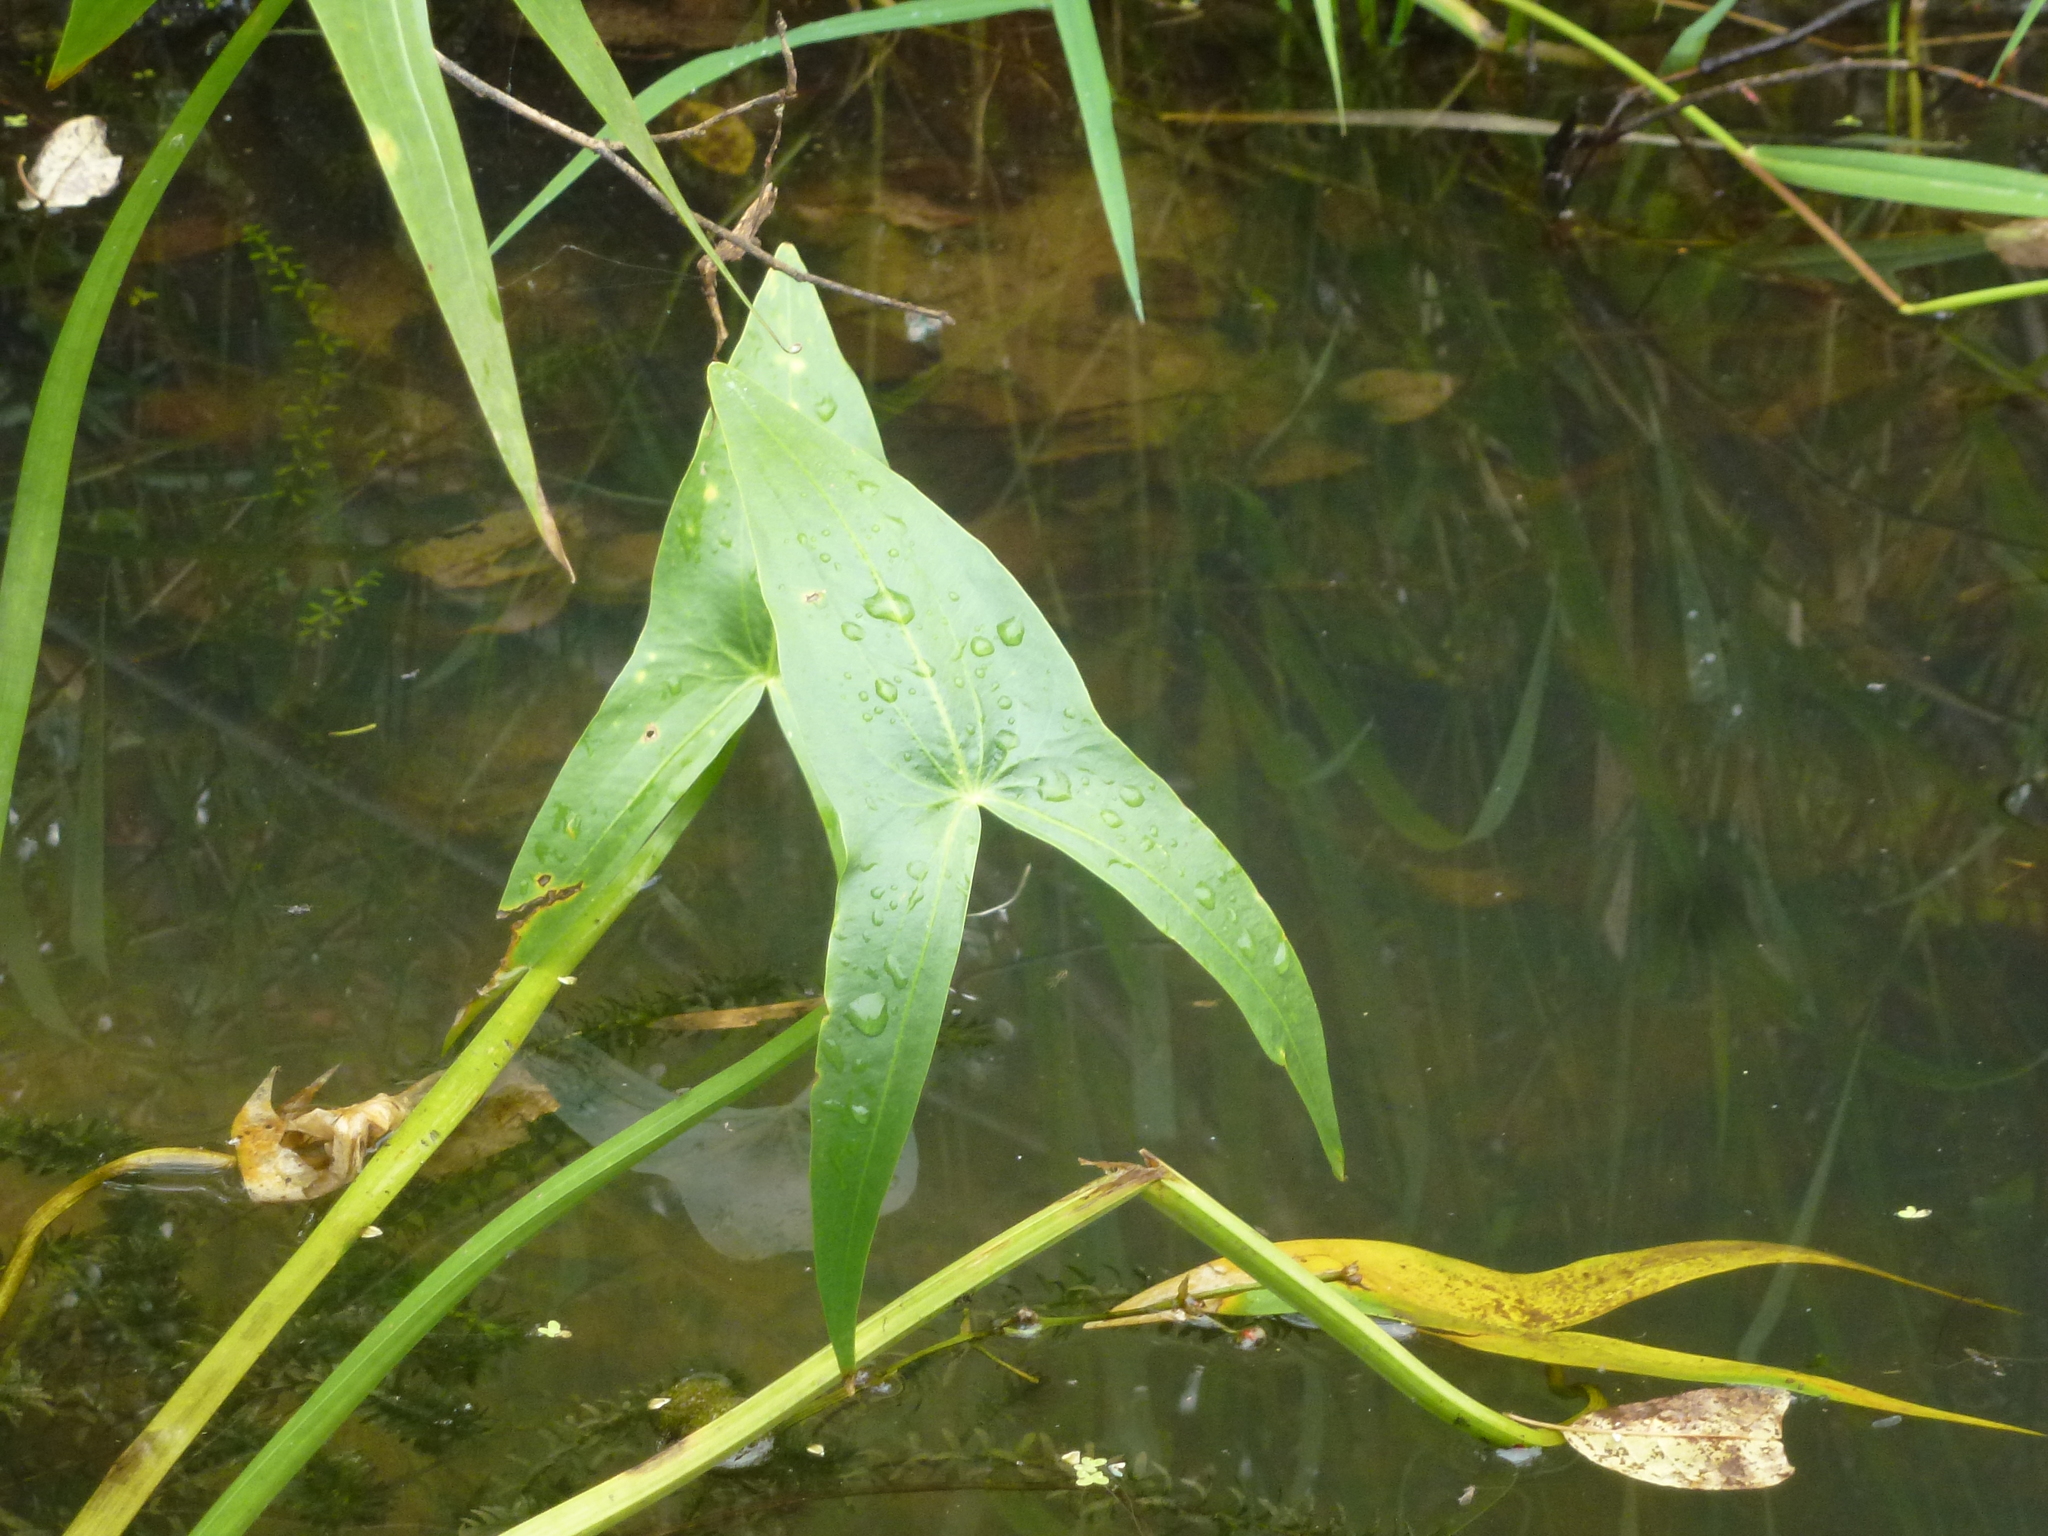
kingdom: Plantae
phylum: Tracheophyta
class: Liliopsida
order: Alismatales
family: Alismataceae
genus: Sagittaria
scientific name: Sagittaria sagittifolia
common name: Arrowhead
